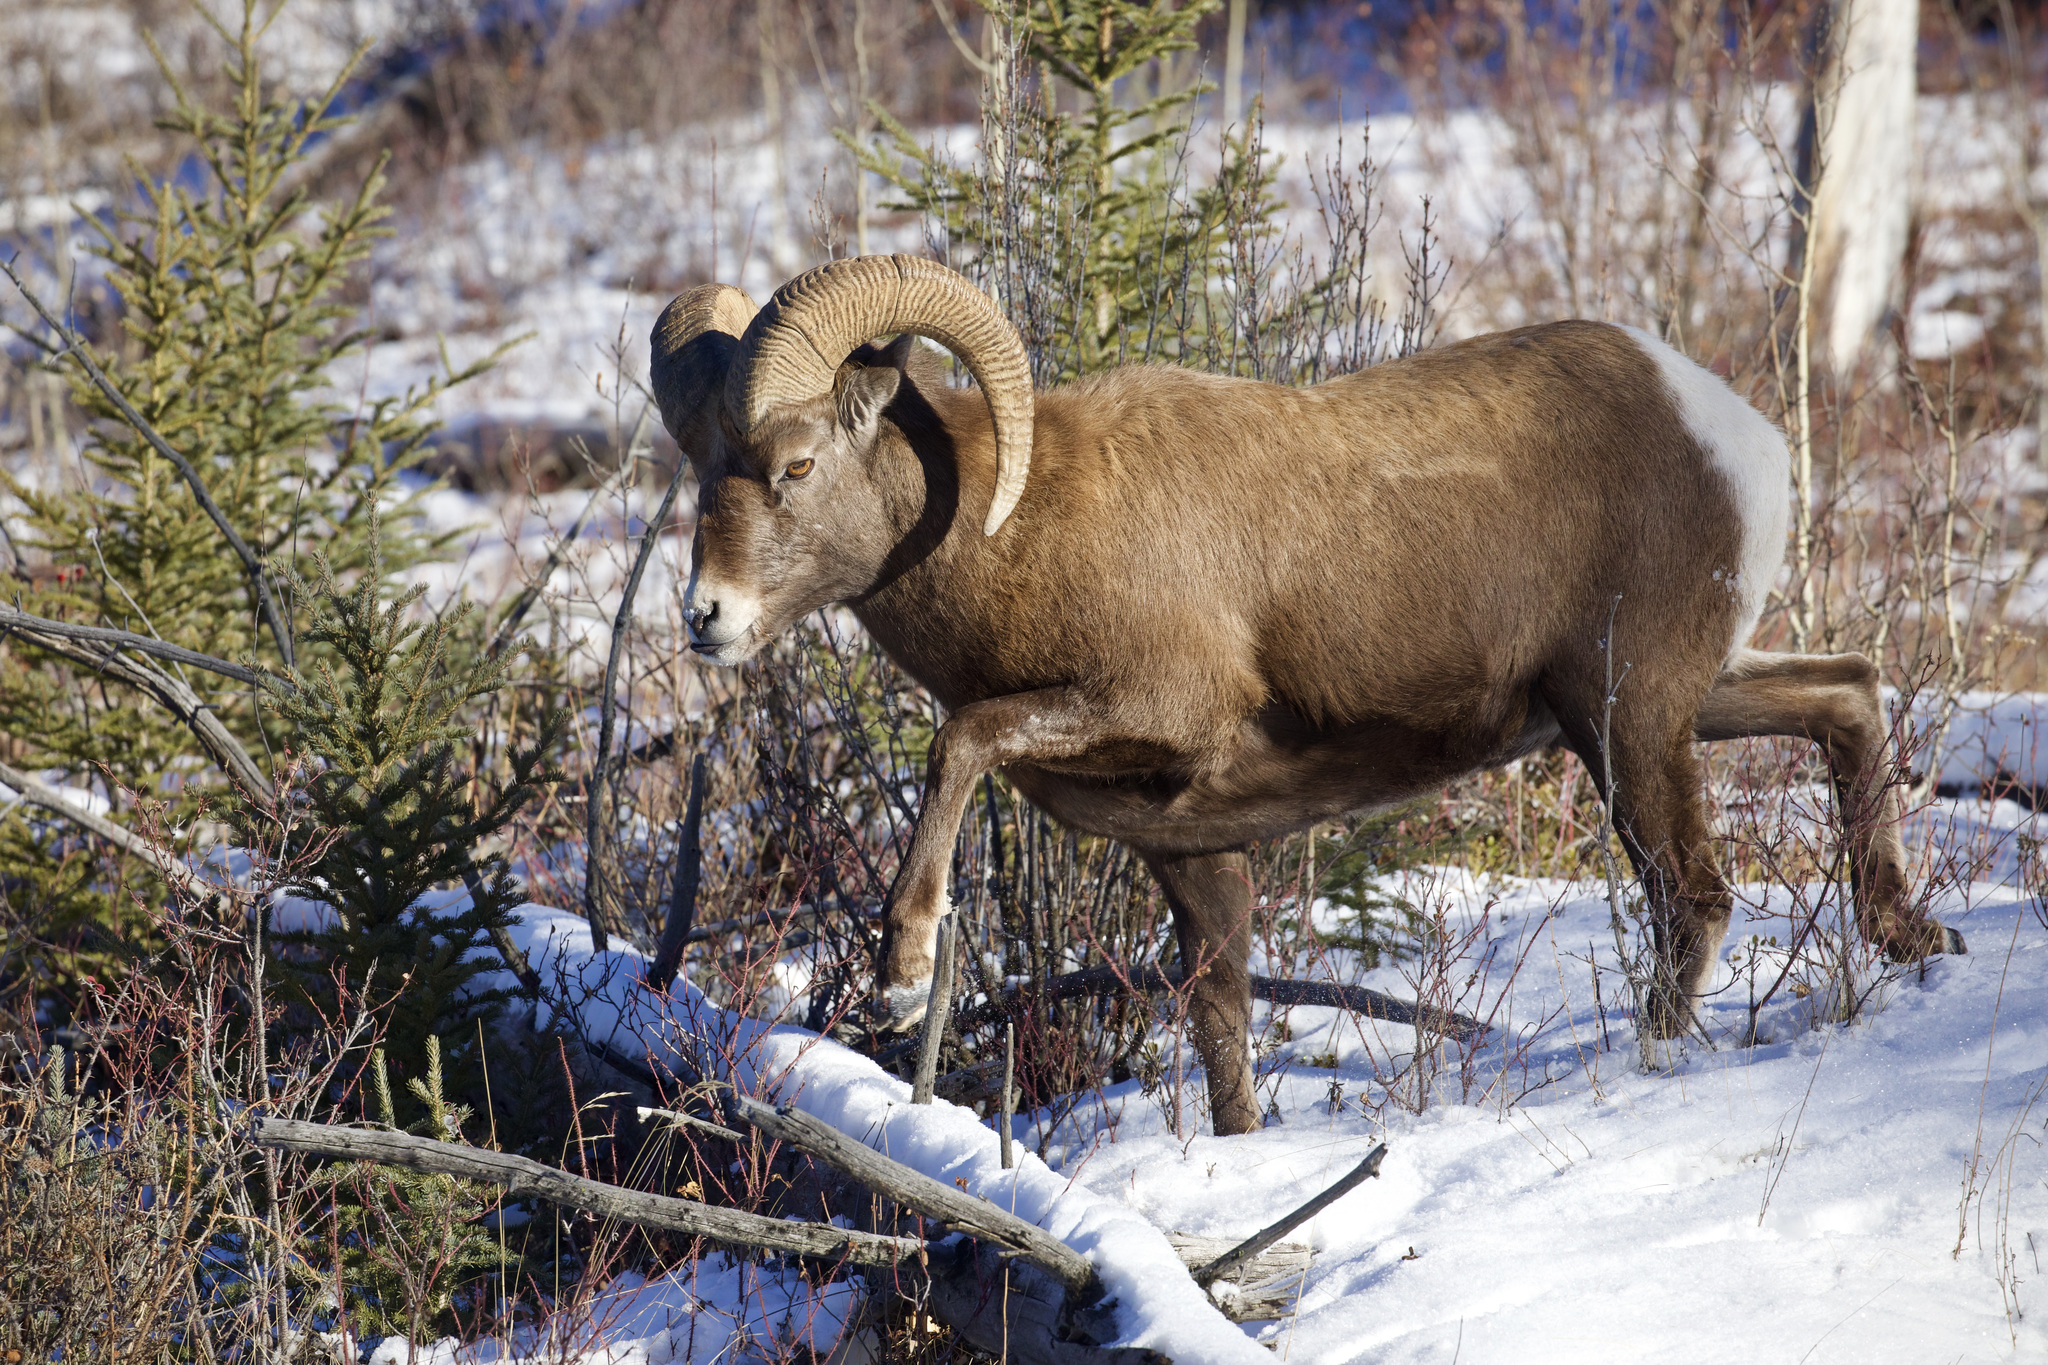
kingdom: Animalia
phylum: Chordata
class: Mammalia
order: Artiodactyla
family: Bovidae
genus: Ovis
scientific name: Ovis canadensis
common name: Bighorn sheep
